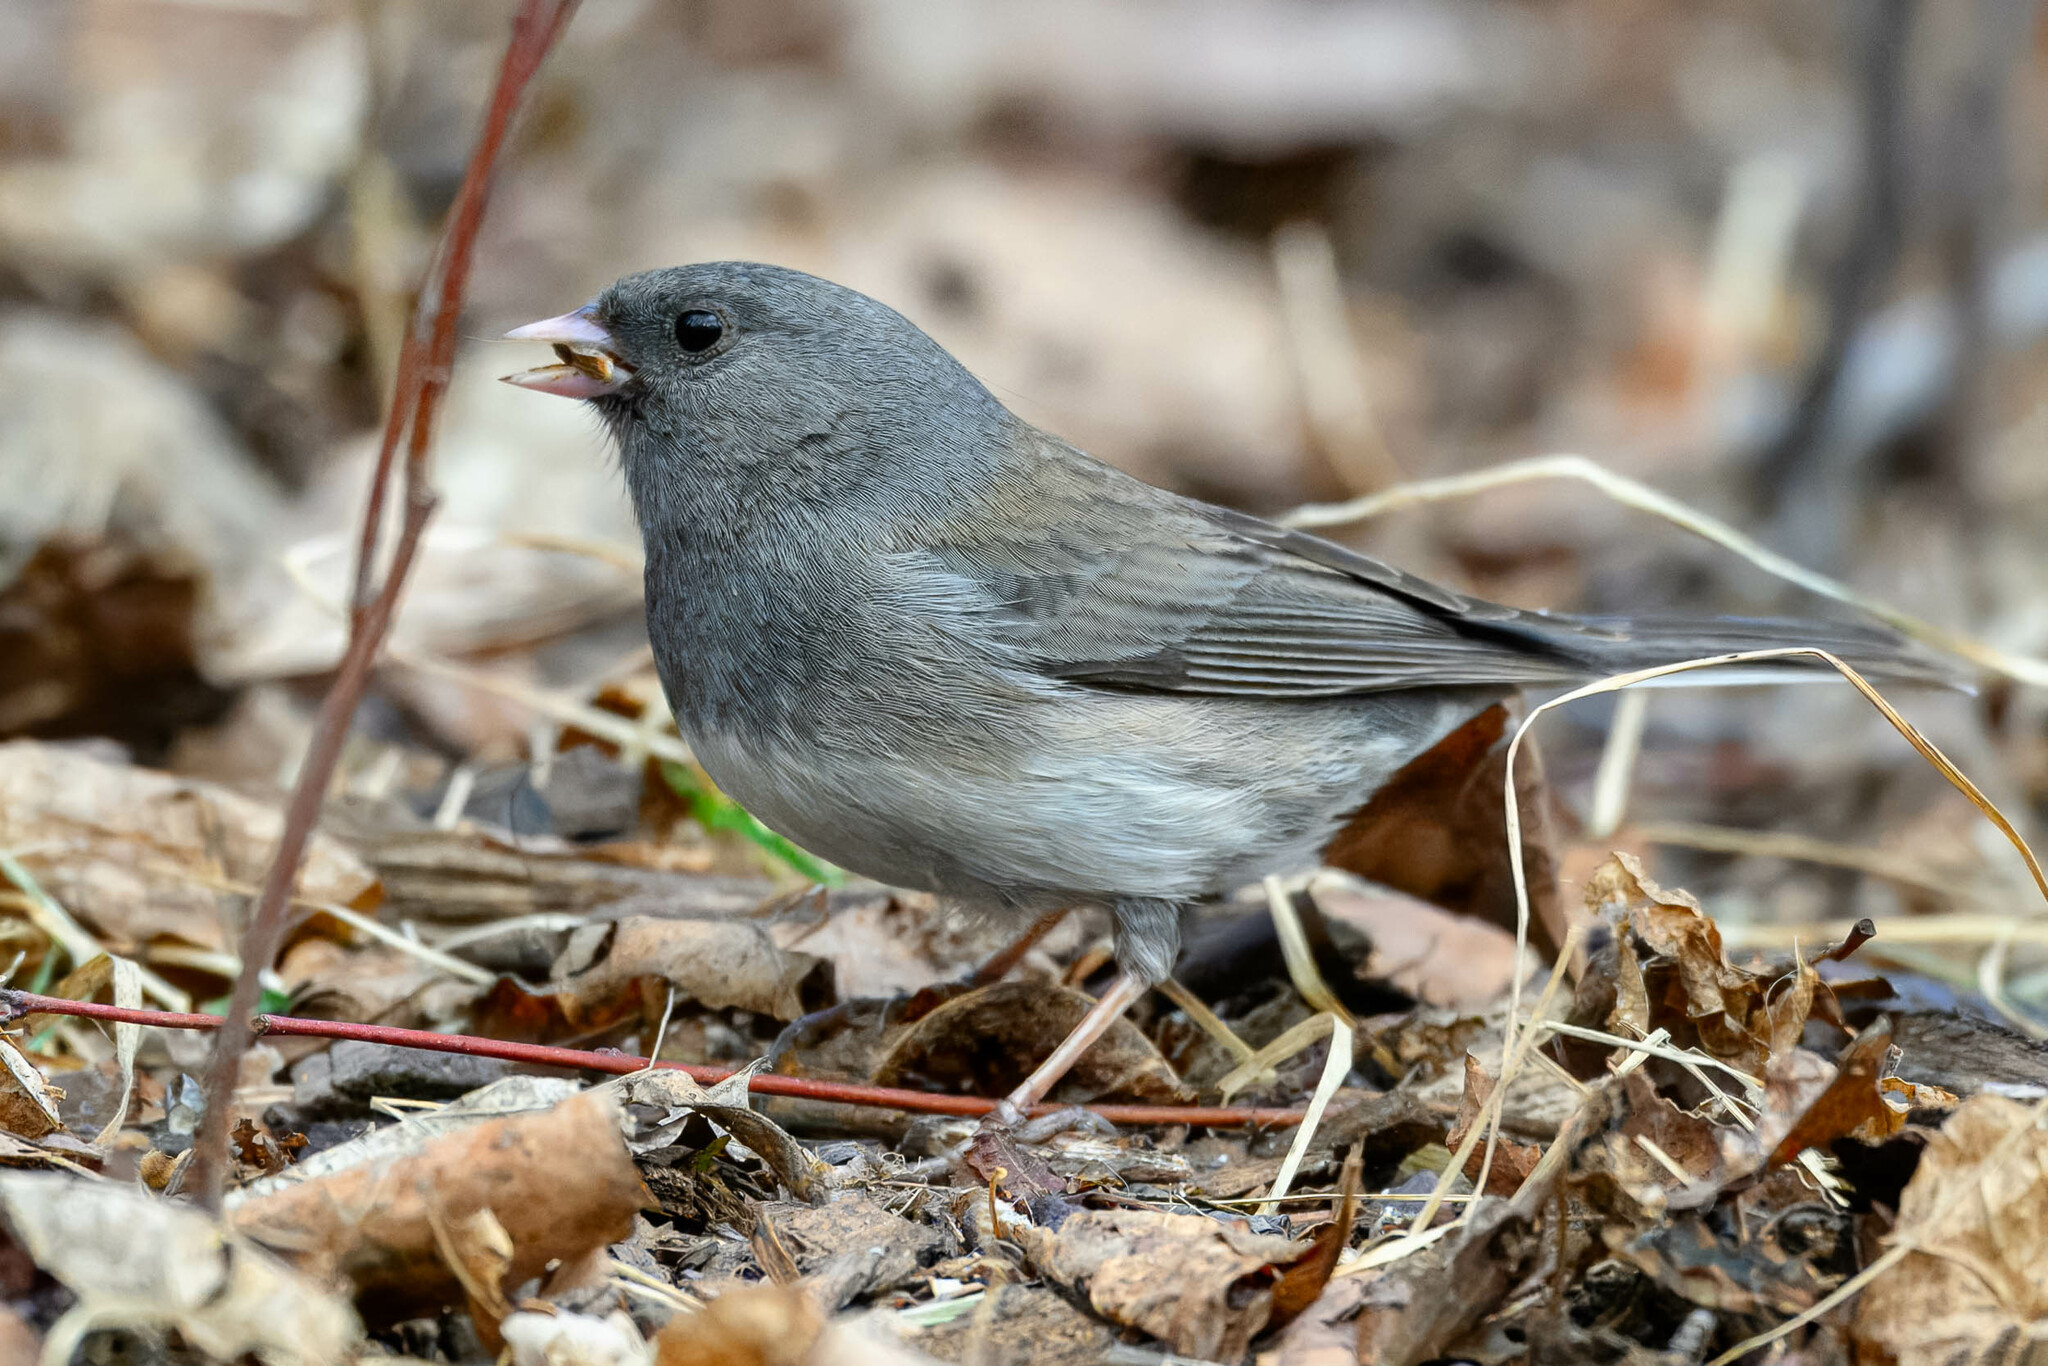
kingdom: Animalia
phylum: Chordata
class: Aves
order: Passeriformes
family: Passerellidae
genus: Junco
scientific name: Junco hyemalis
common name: Dark-eyed junco
